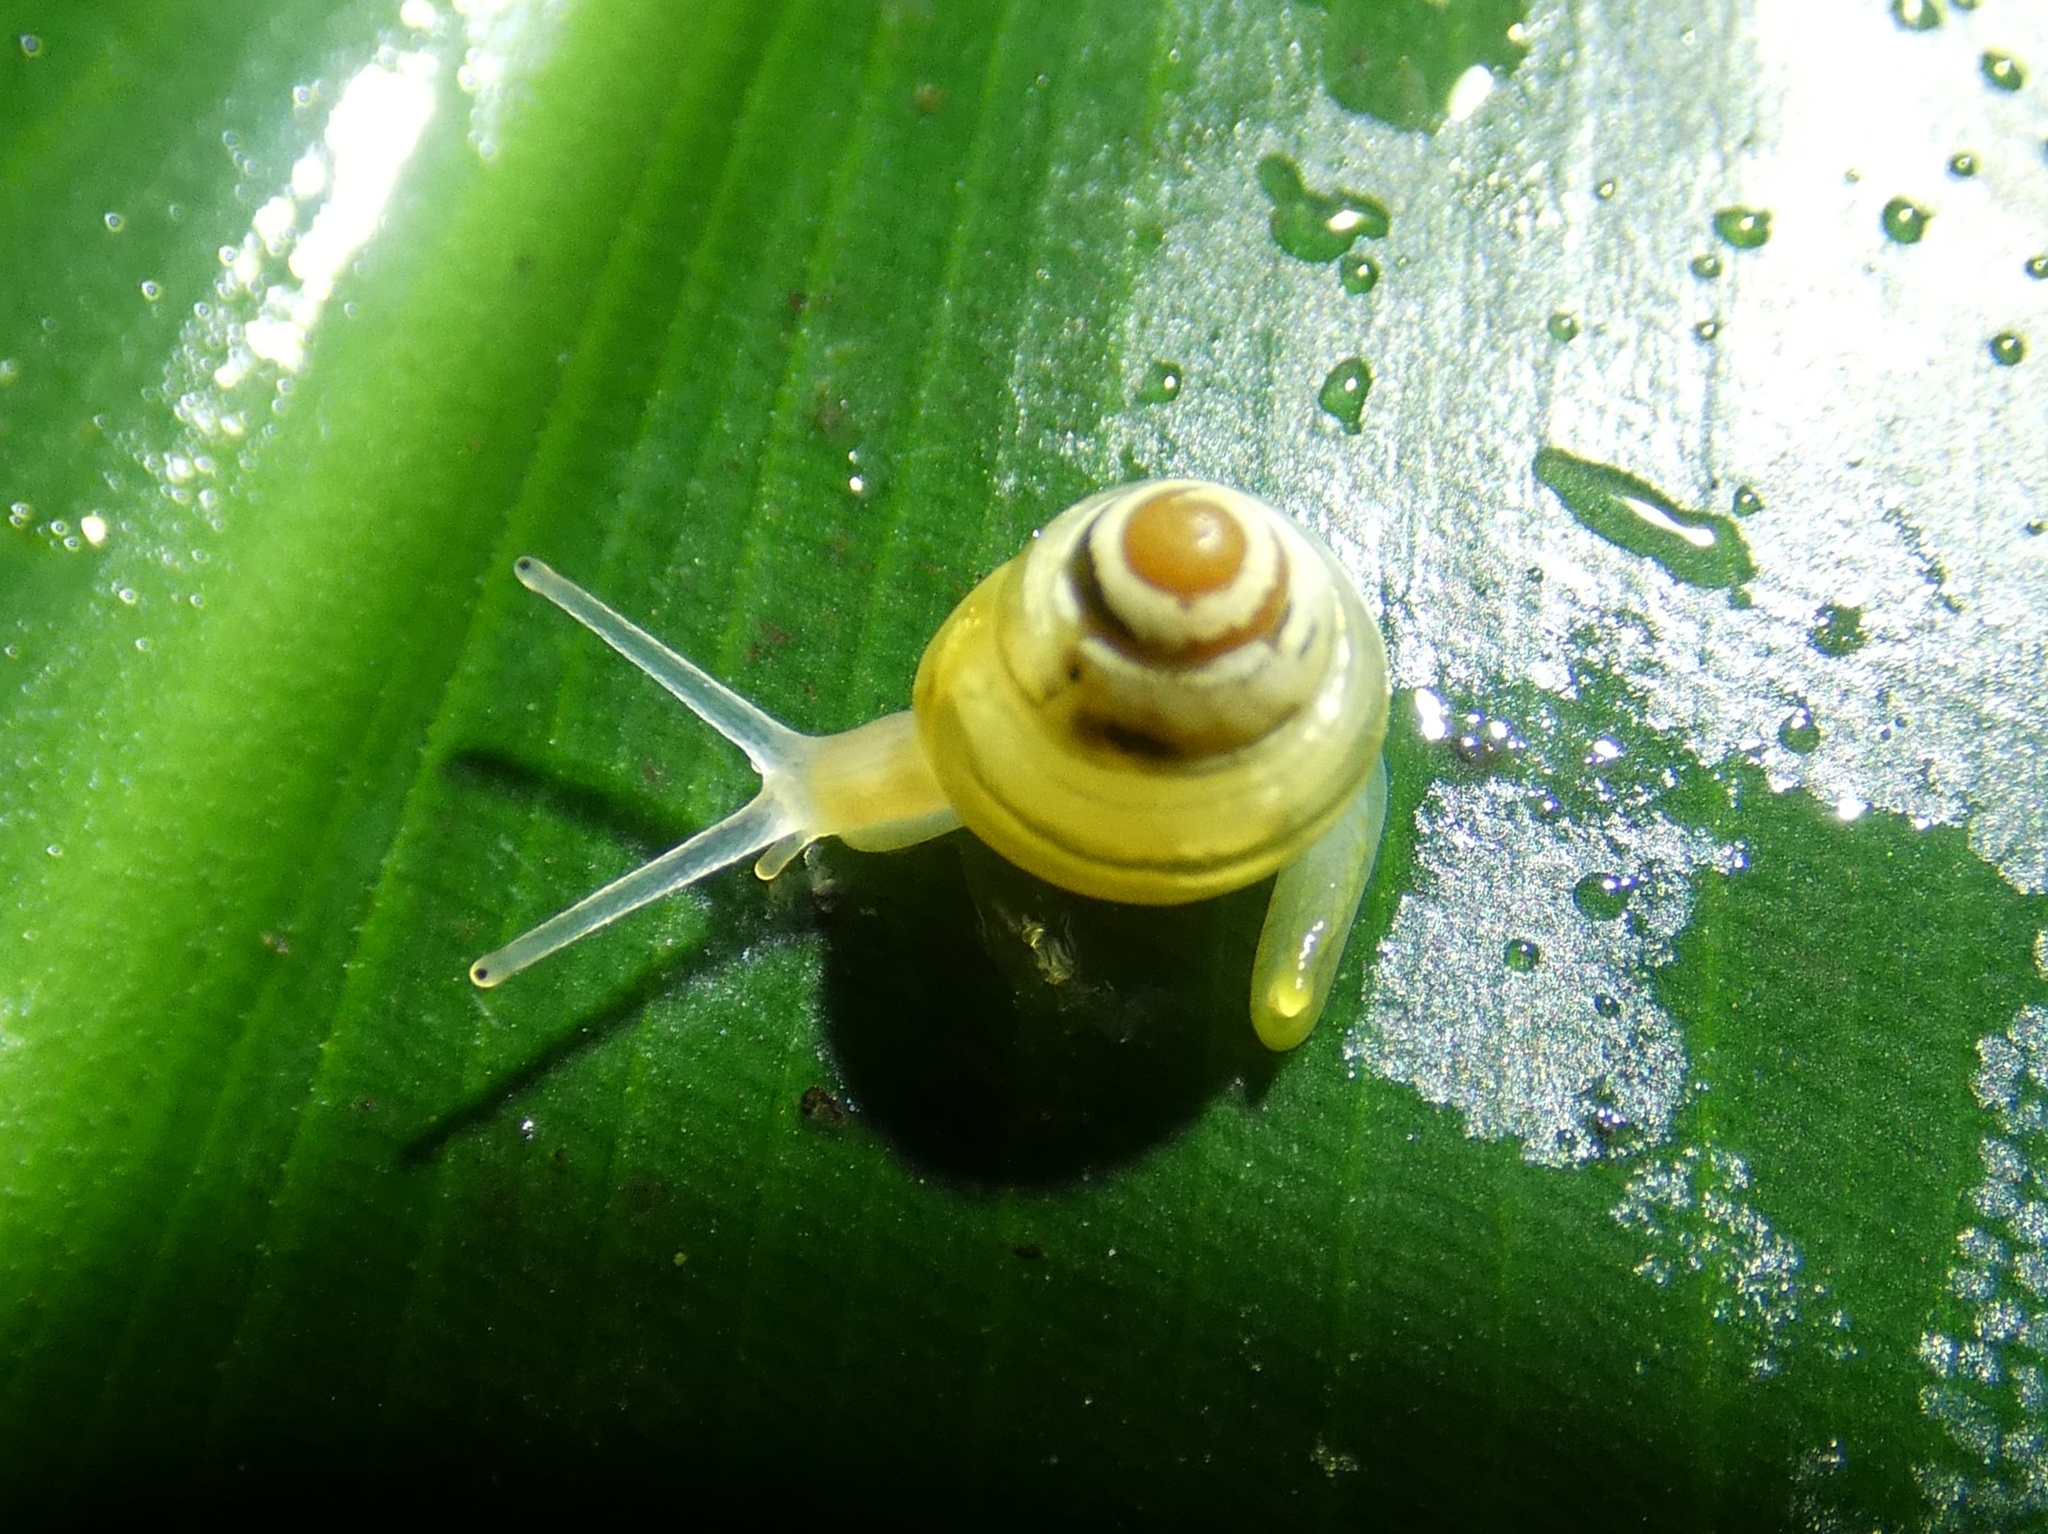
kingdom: Animalia
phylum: Mollusca
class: Gastropoda
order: Stylommatophora
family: Euconulidae
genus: Coneuplecta
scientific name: Coneuplecta pampini
